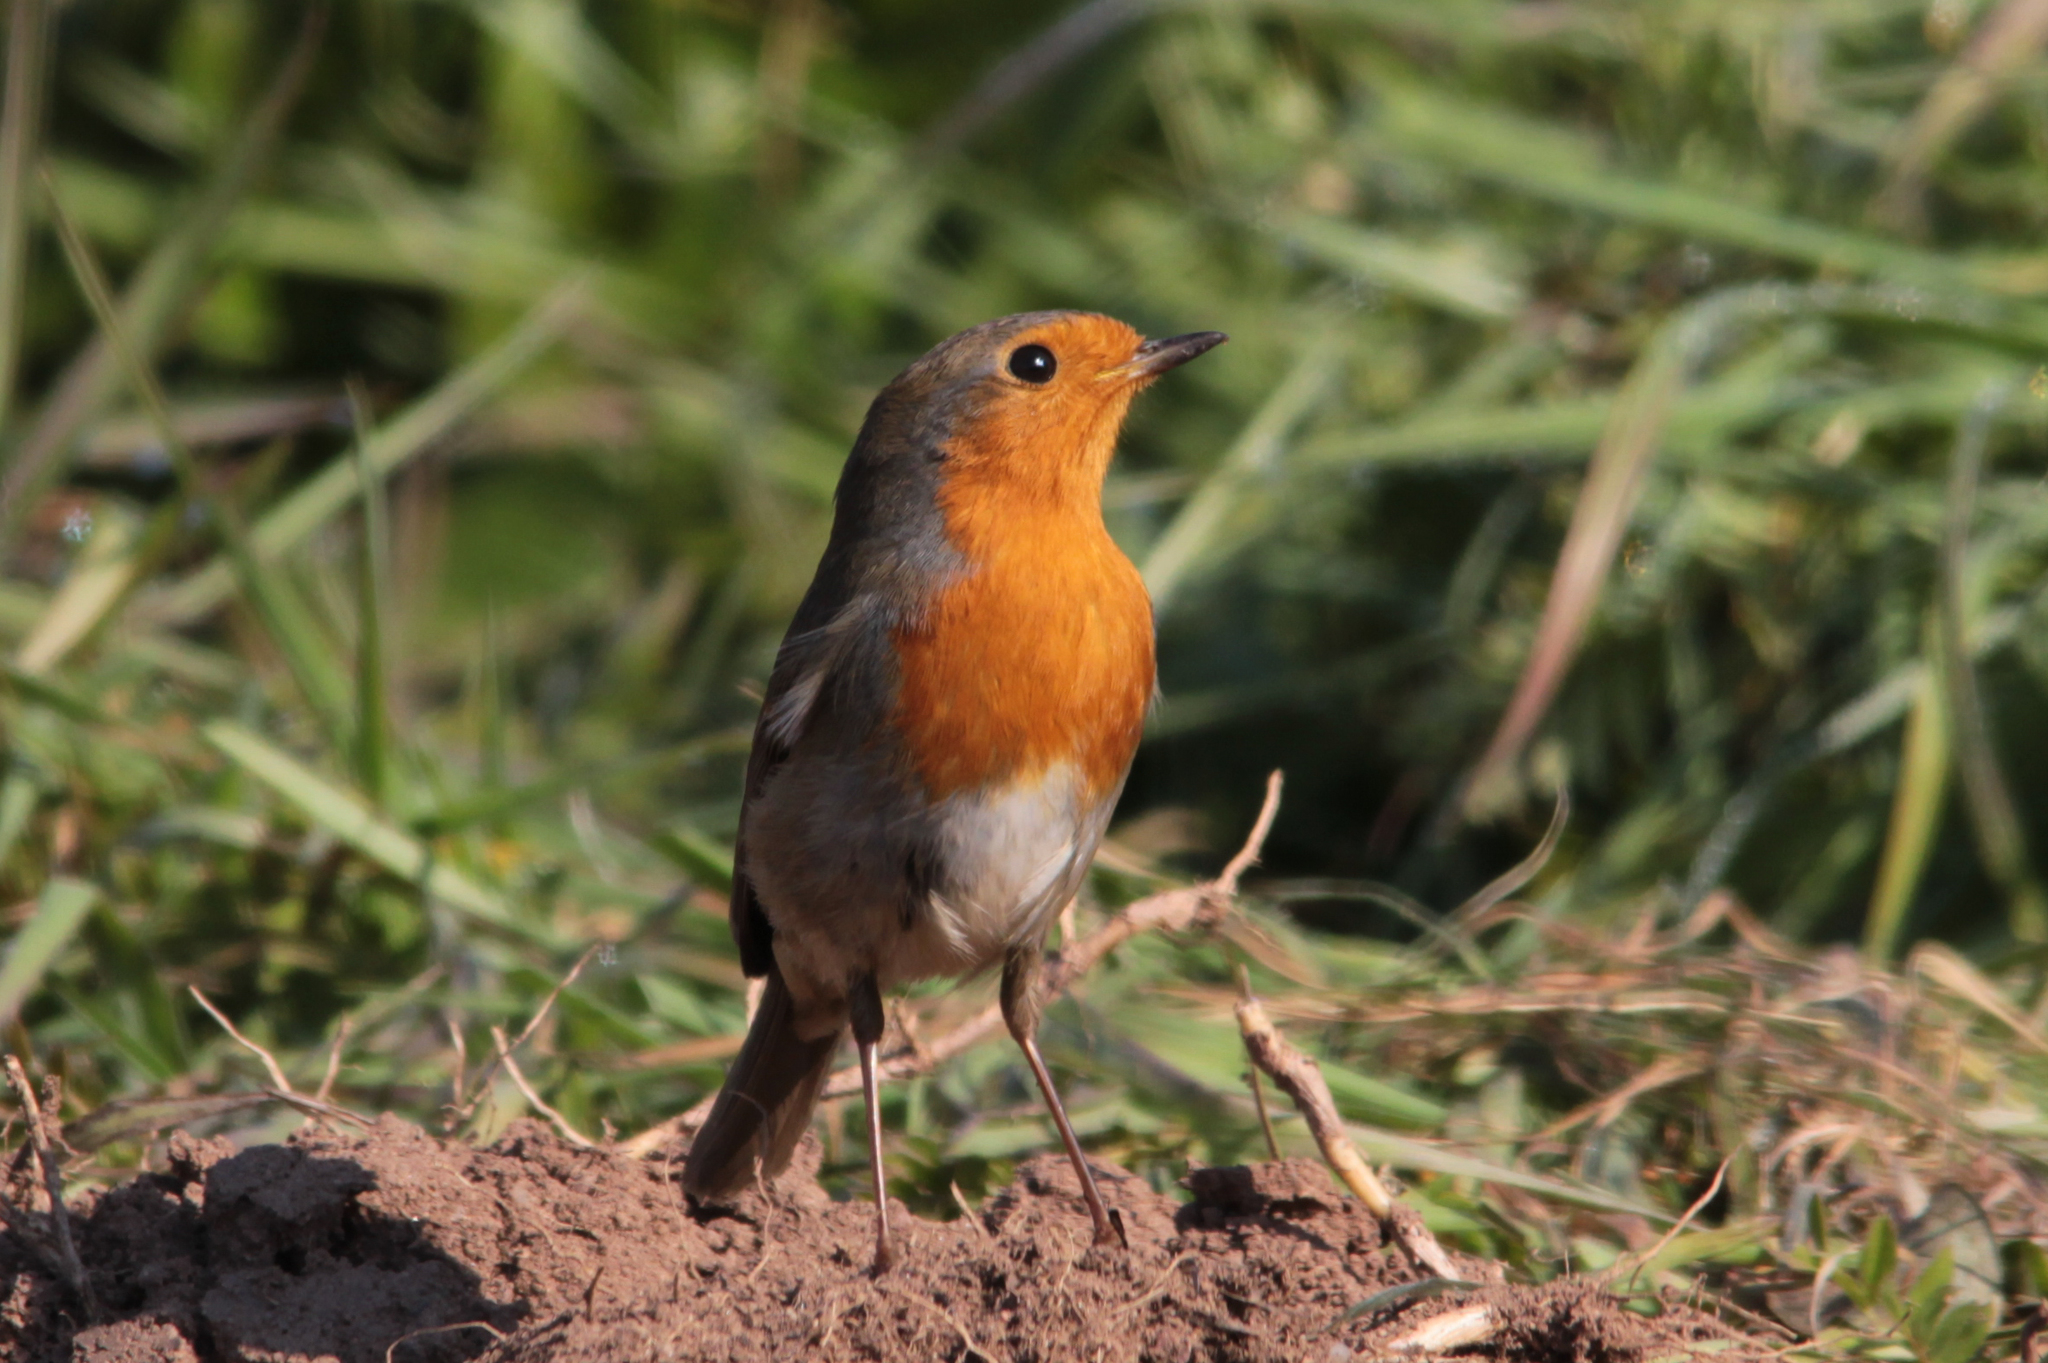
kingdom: Animalia
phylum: Chordata
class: Aves
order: Passeriformes
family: Muscicapidae
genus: Erithacus
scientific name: Erithacus rubecula
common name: European robin
